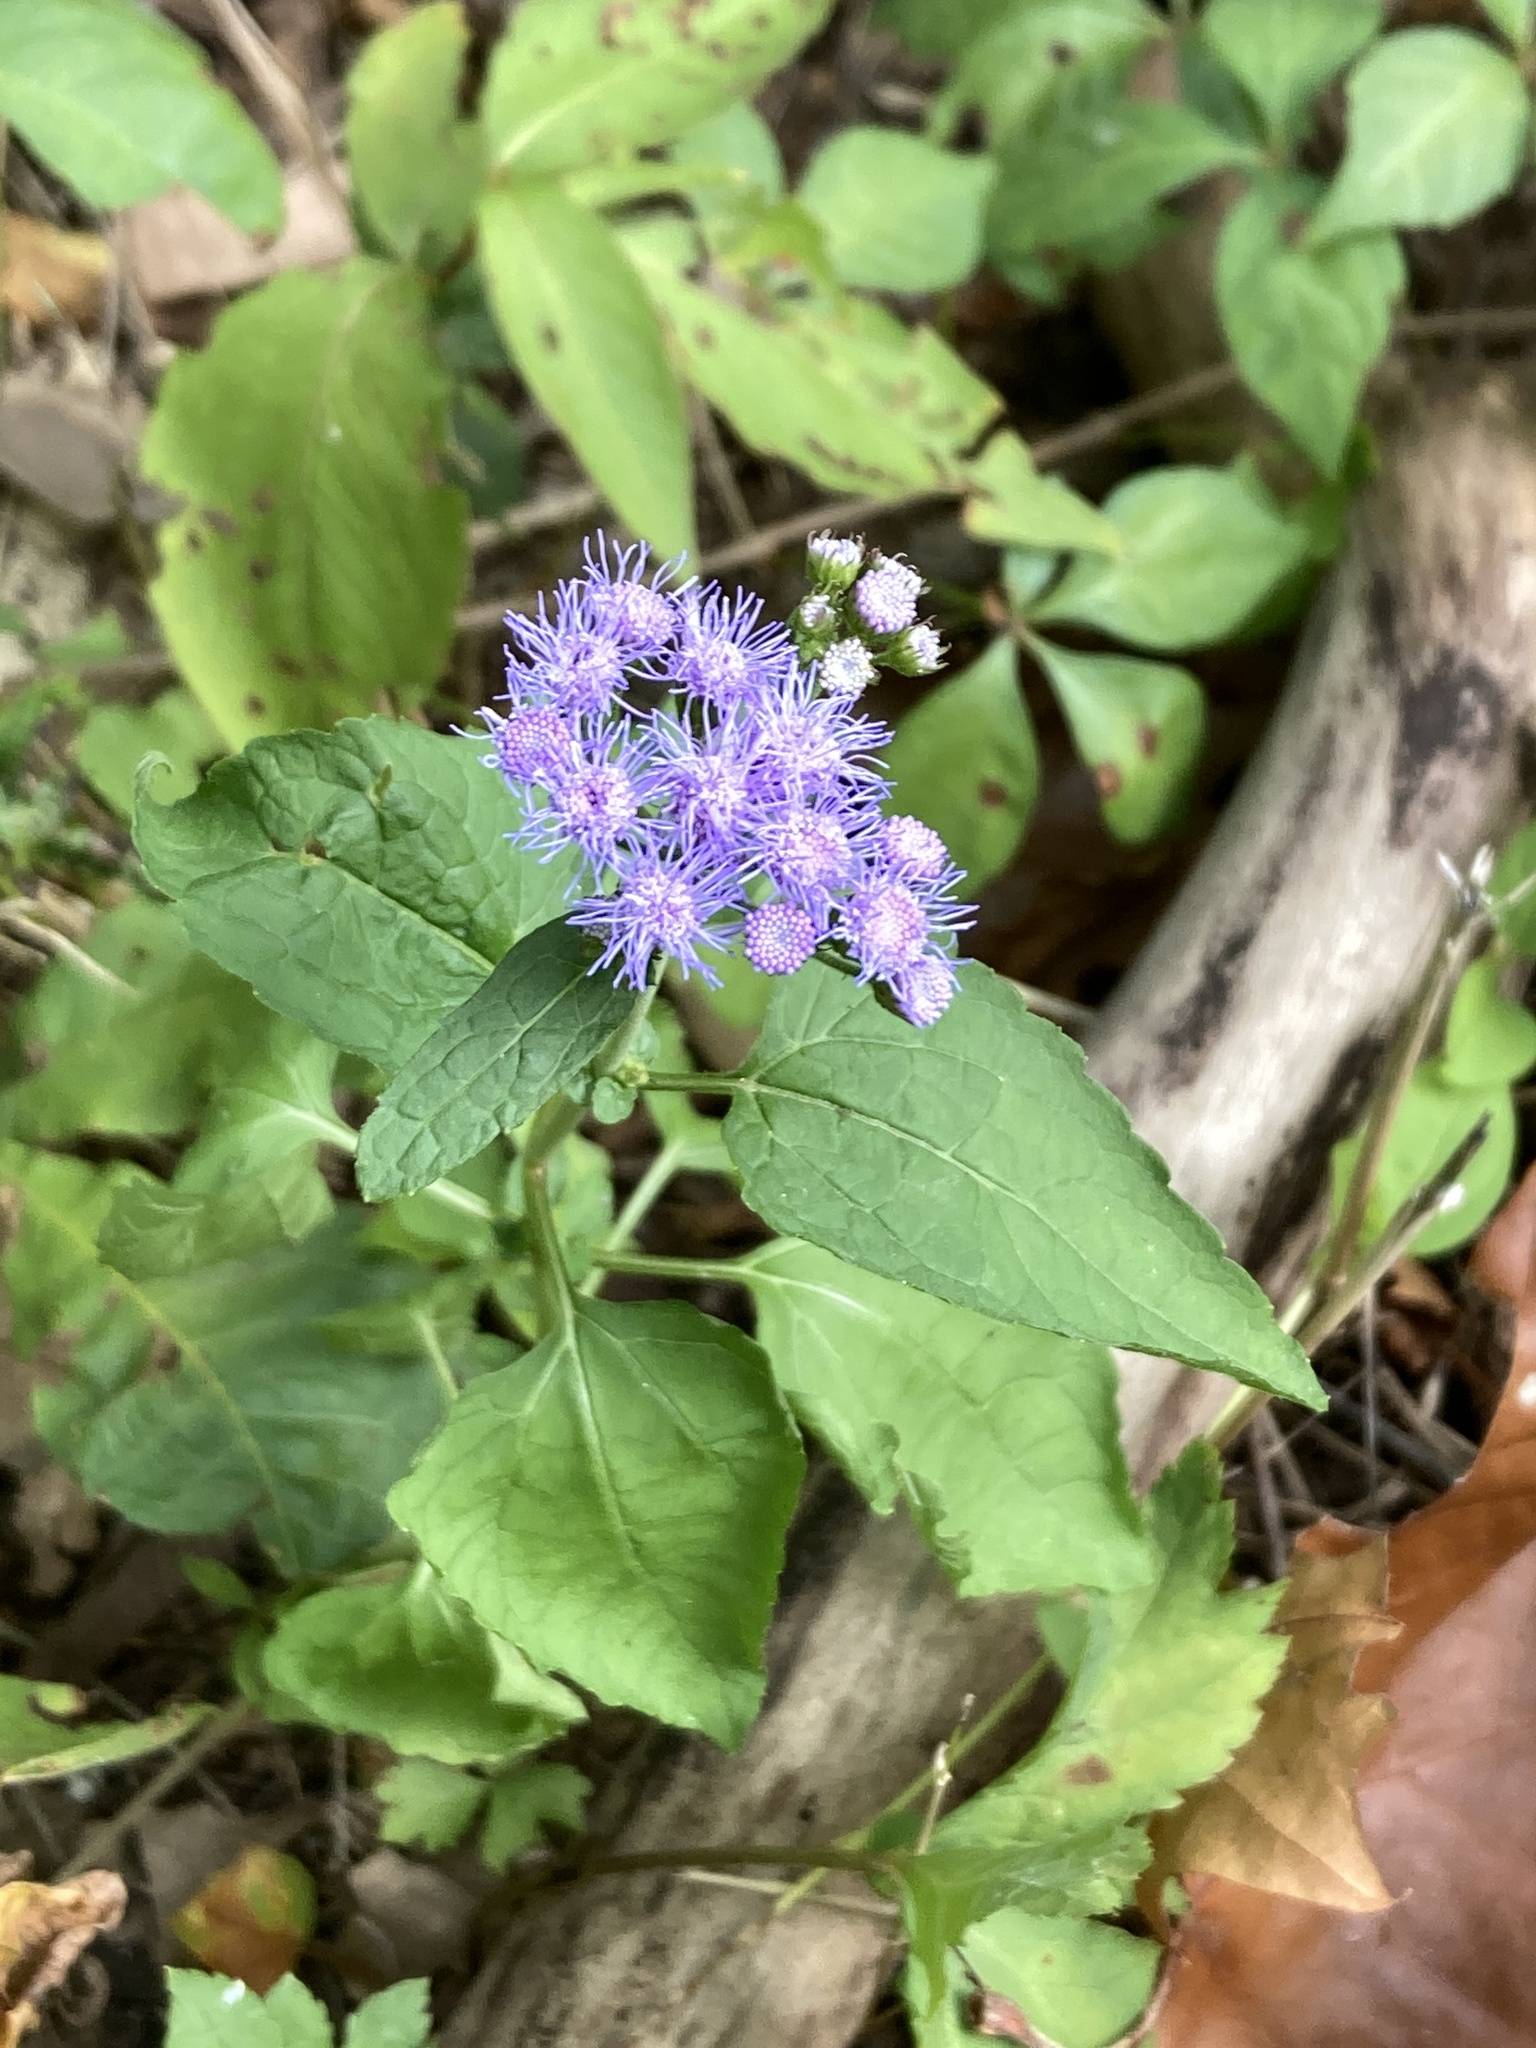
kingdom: Plantae
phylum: Tracheophyta
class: Magnoliopsida
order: Asterales
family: Asteraceae
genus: Conoclinium
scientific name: Conoclinium coelestinum
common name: Blue mistflower
